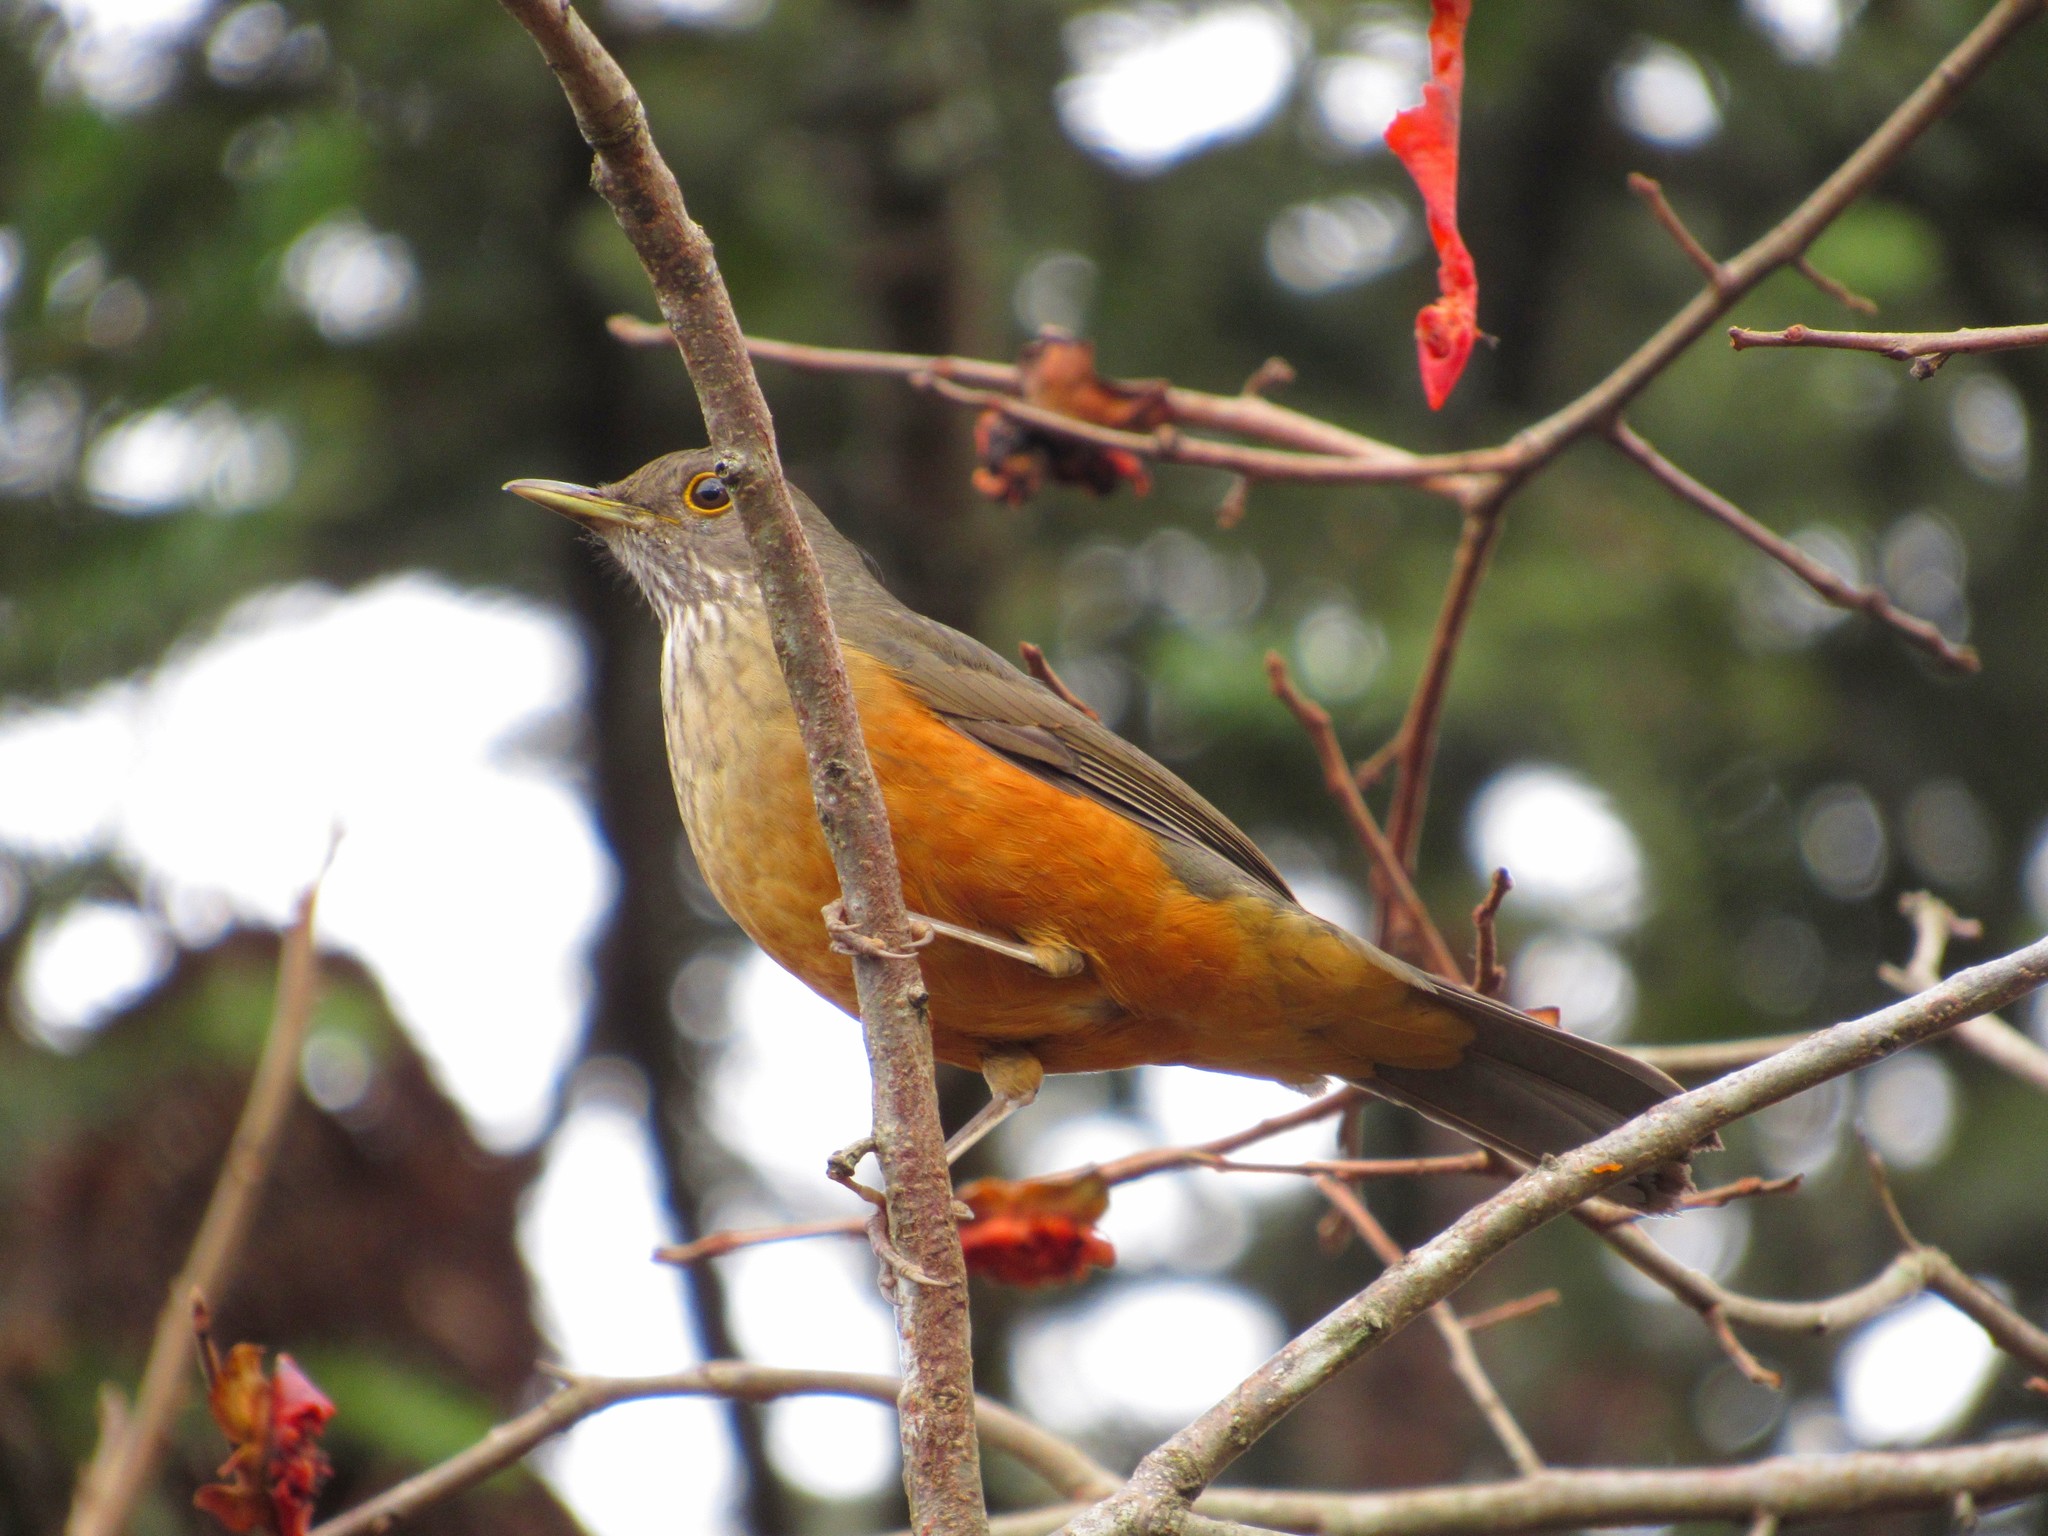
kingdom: Animalia
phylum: Chordata
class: Aves
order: Passeriformes
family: Turdidae
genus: Turdus
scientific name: Turdus rufiventris
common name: Rufous-bellied thrush
